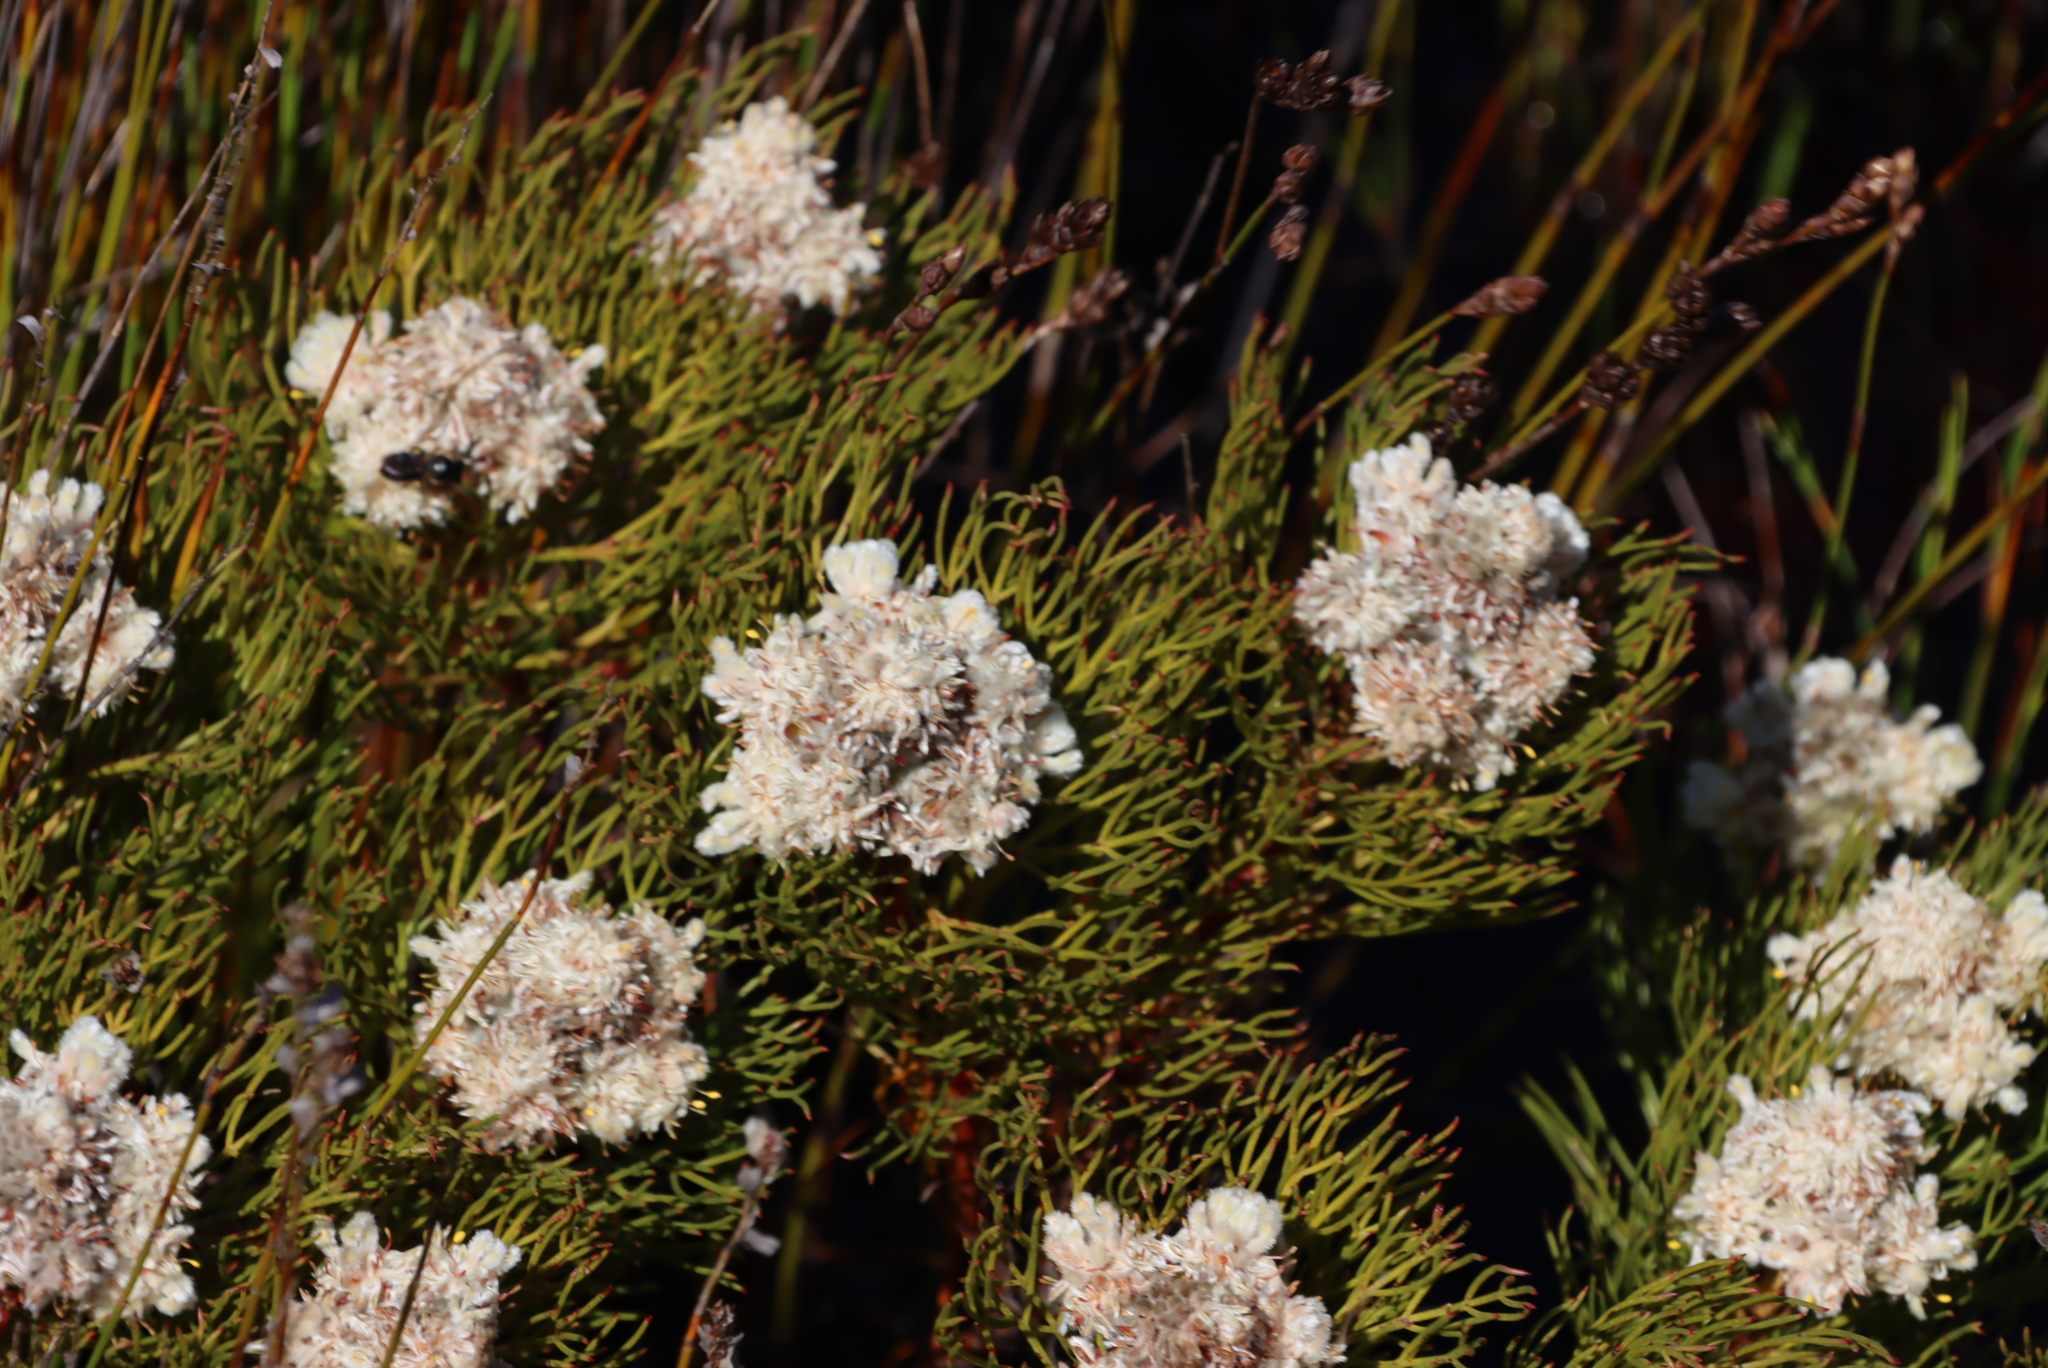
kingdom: Plantae
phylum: Tracheophyta
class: Magnoliopsida
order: Proteales
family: Proteaceae
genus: Serruria
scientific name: Serruria glomerata
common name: Cluster spiderhead
